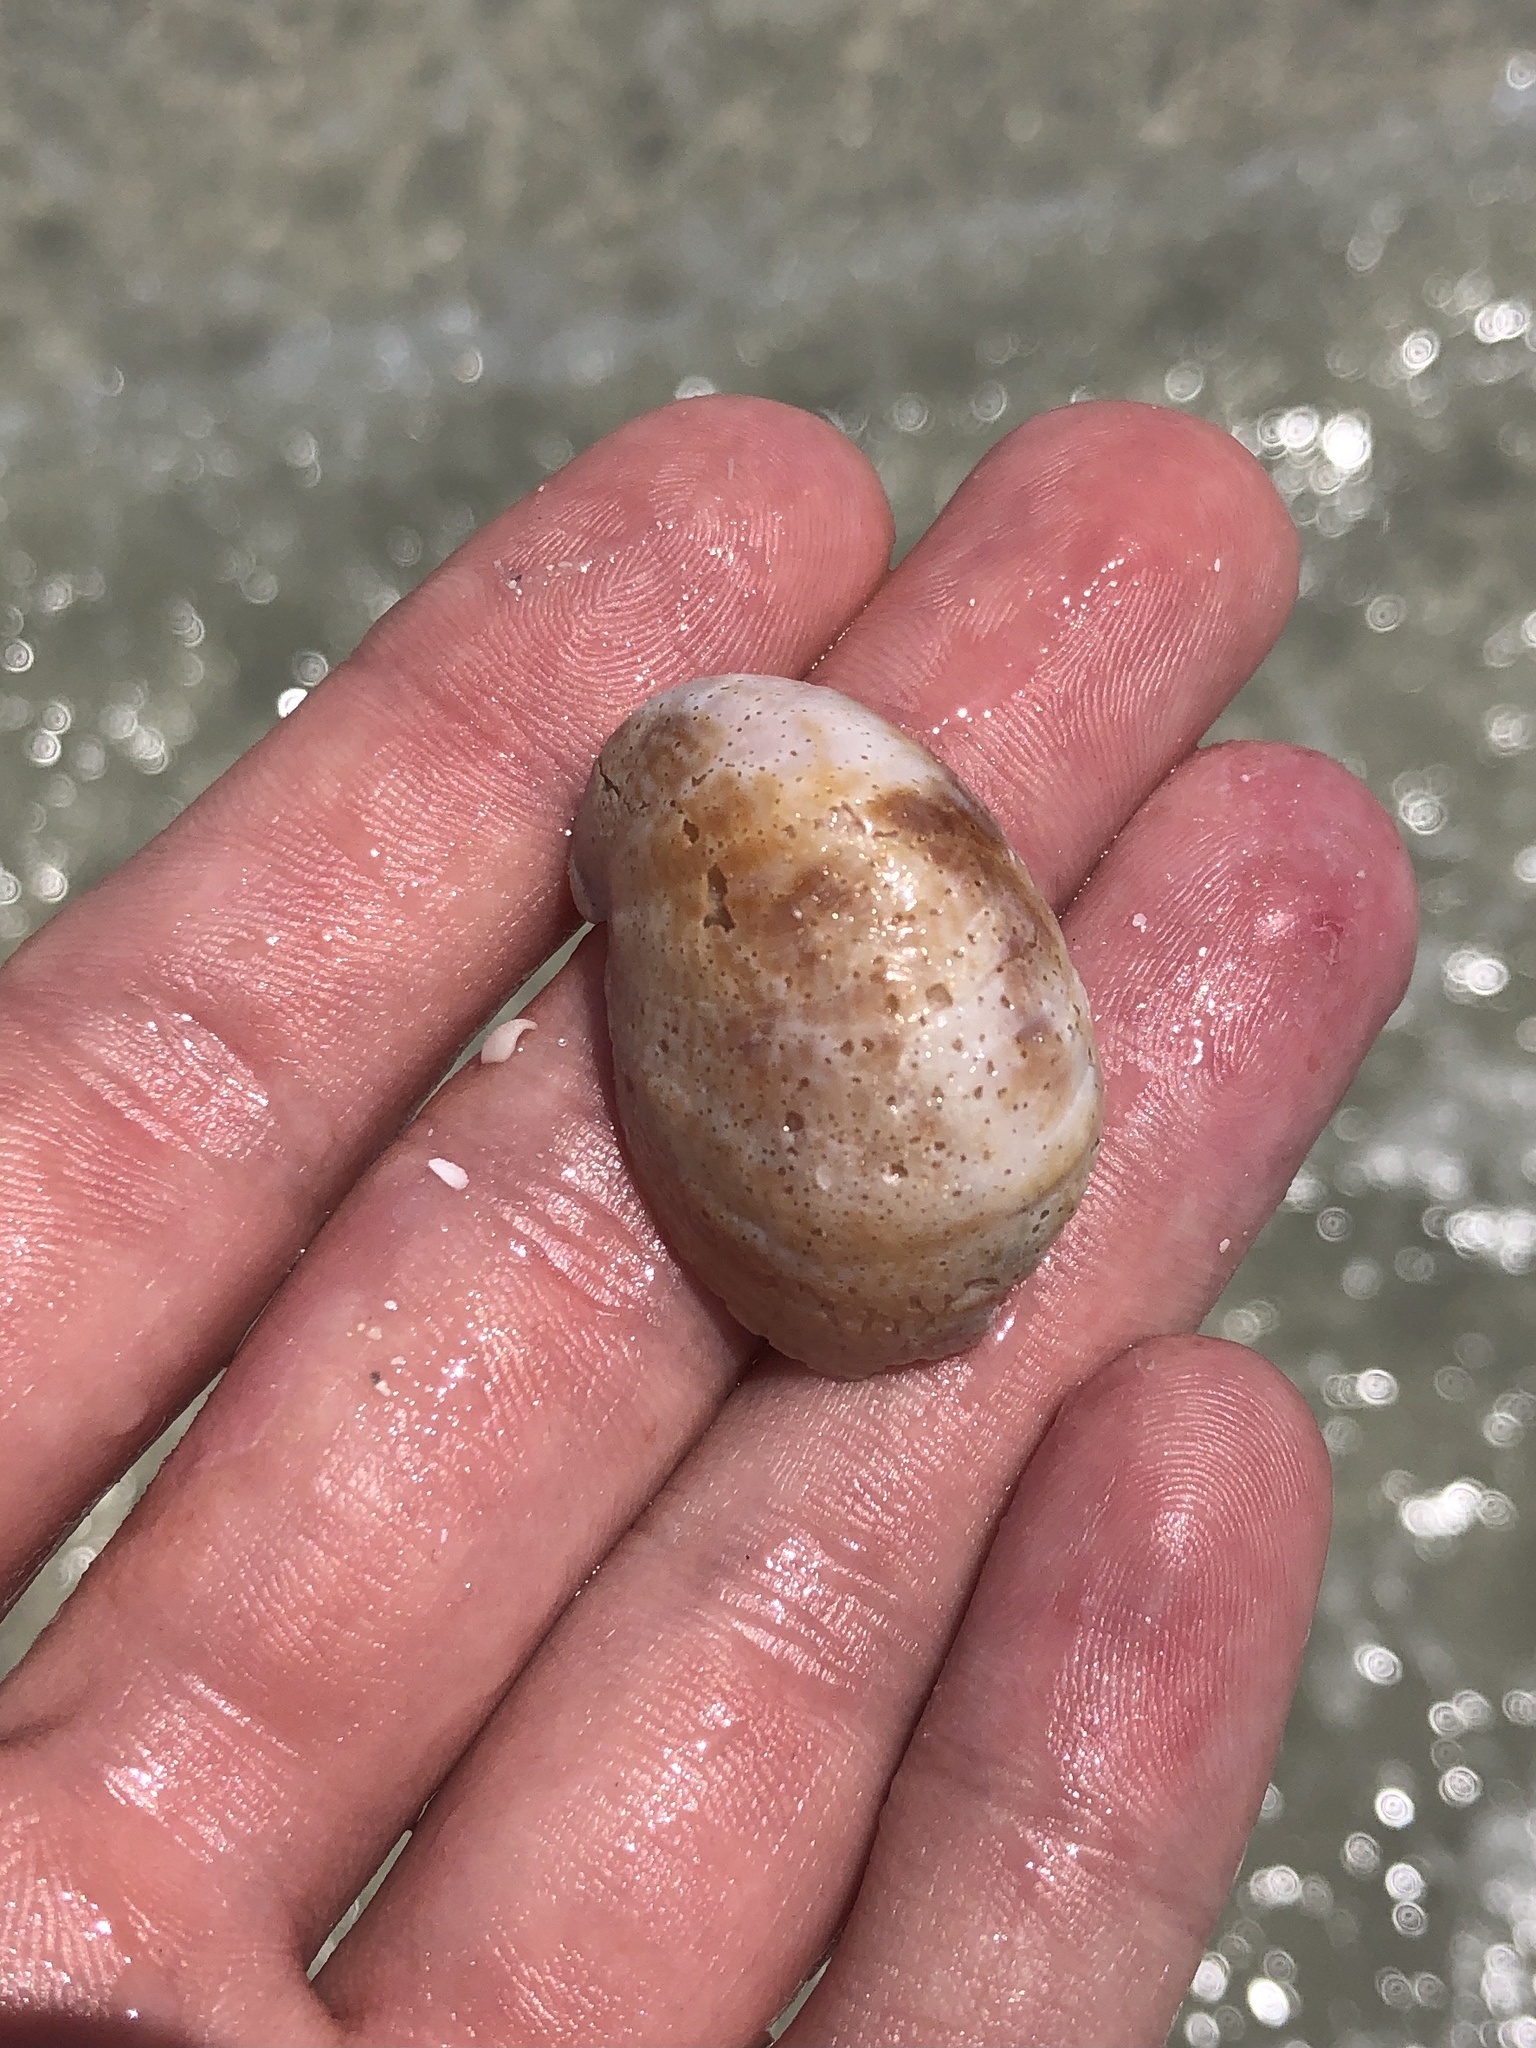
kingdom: Animalia
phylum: Mollusca
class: Gastropoda
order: Littorinimorpha
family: Calyptraeidae
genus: Crepidula
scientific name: Crepidula fornicata
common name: Slipper limpet
